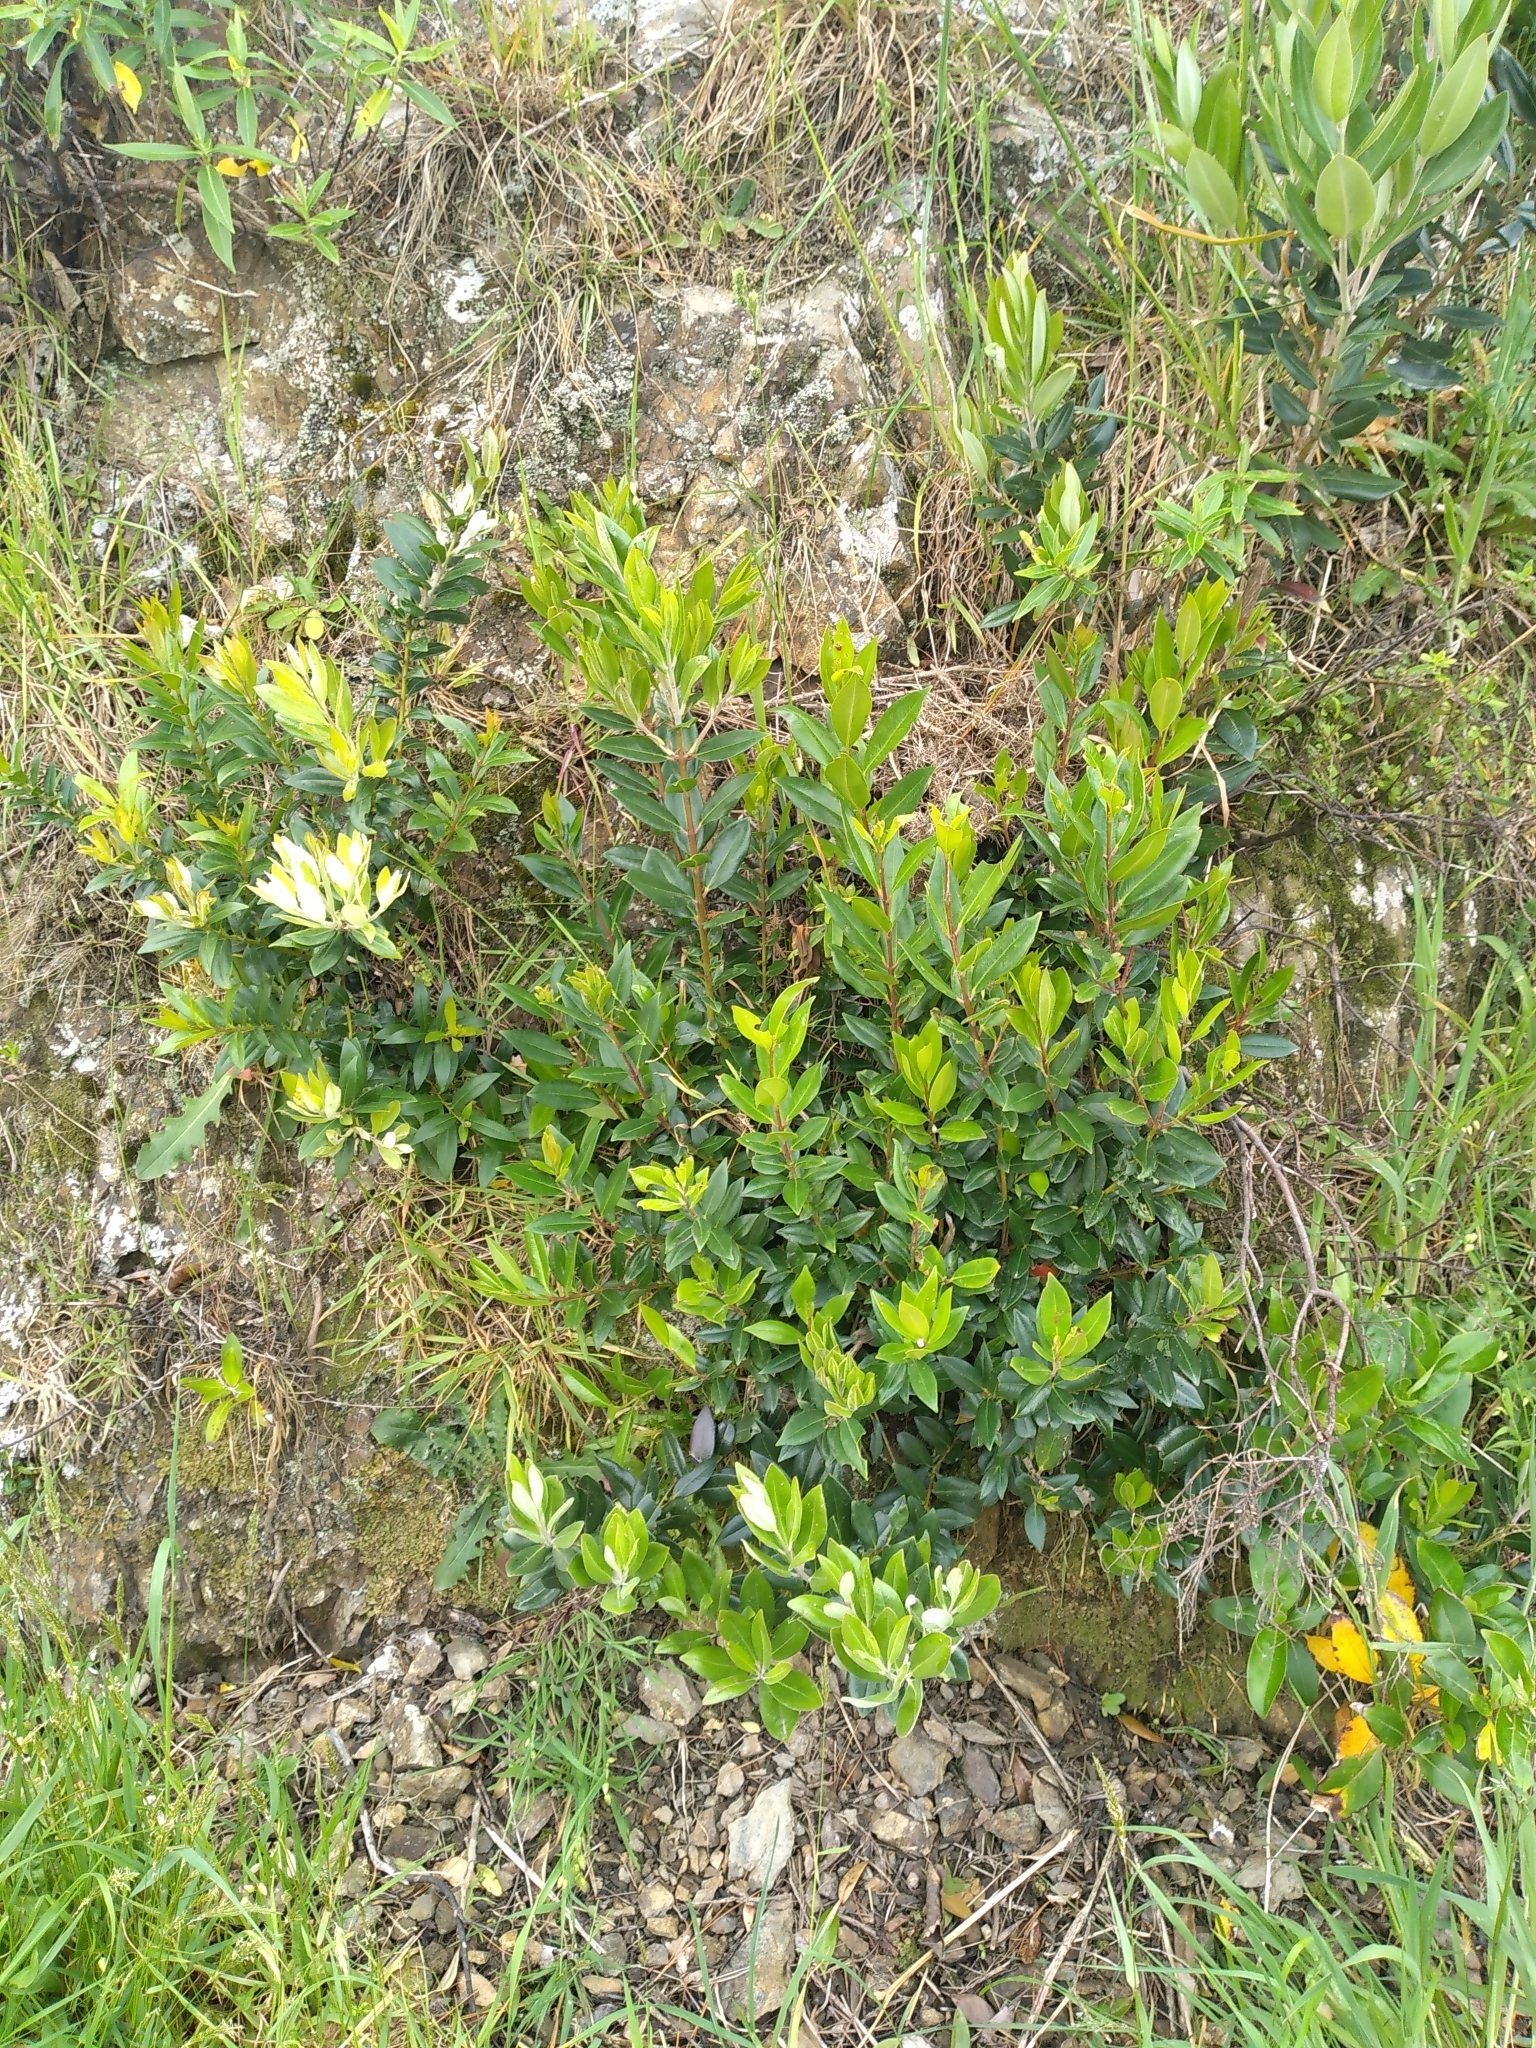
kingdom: Plantae
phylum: Tracheophyta
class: Magnoliopsida
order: Myrtales
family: Myrtaceae
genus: Metrosideros
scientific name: Metrosideros excelsa
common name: New zealand christmastree
